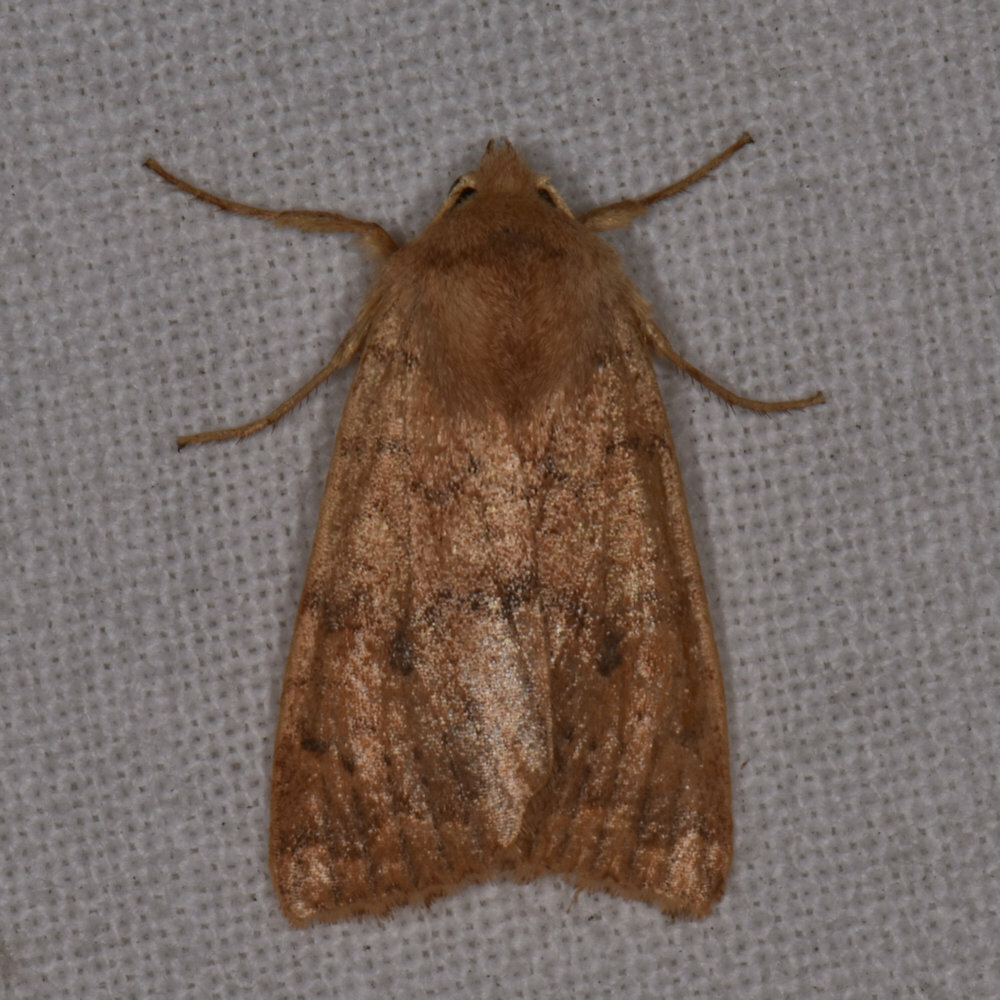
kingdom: Animalia
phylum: Arthropoda
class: Insecta
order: Lepidoptera
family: Noctuidae
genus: Agrochola
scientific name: Agrochola bicolorago
